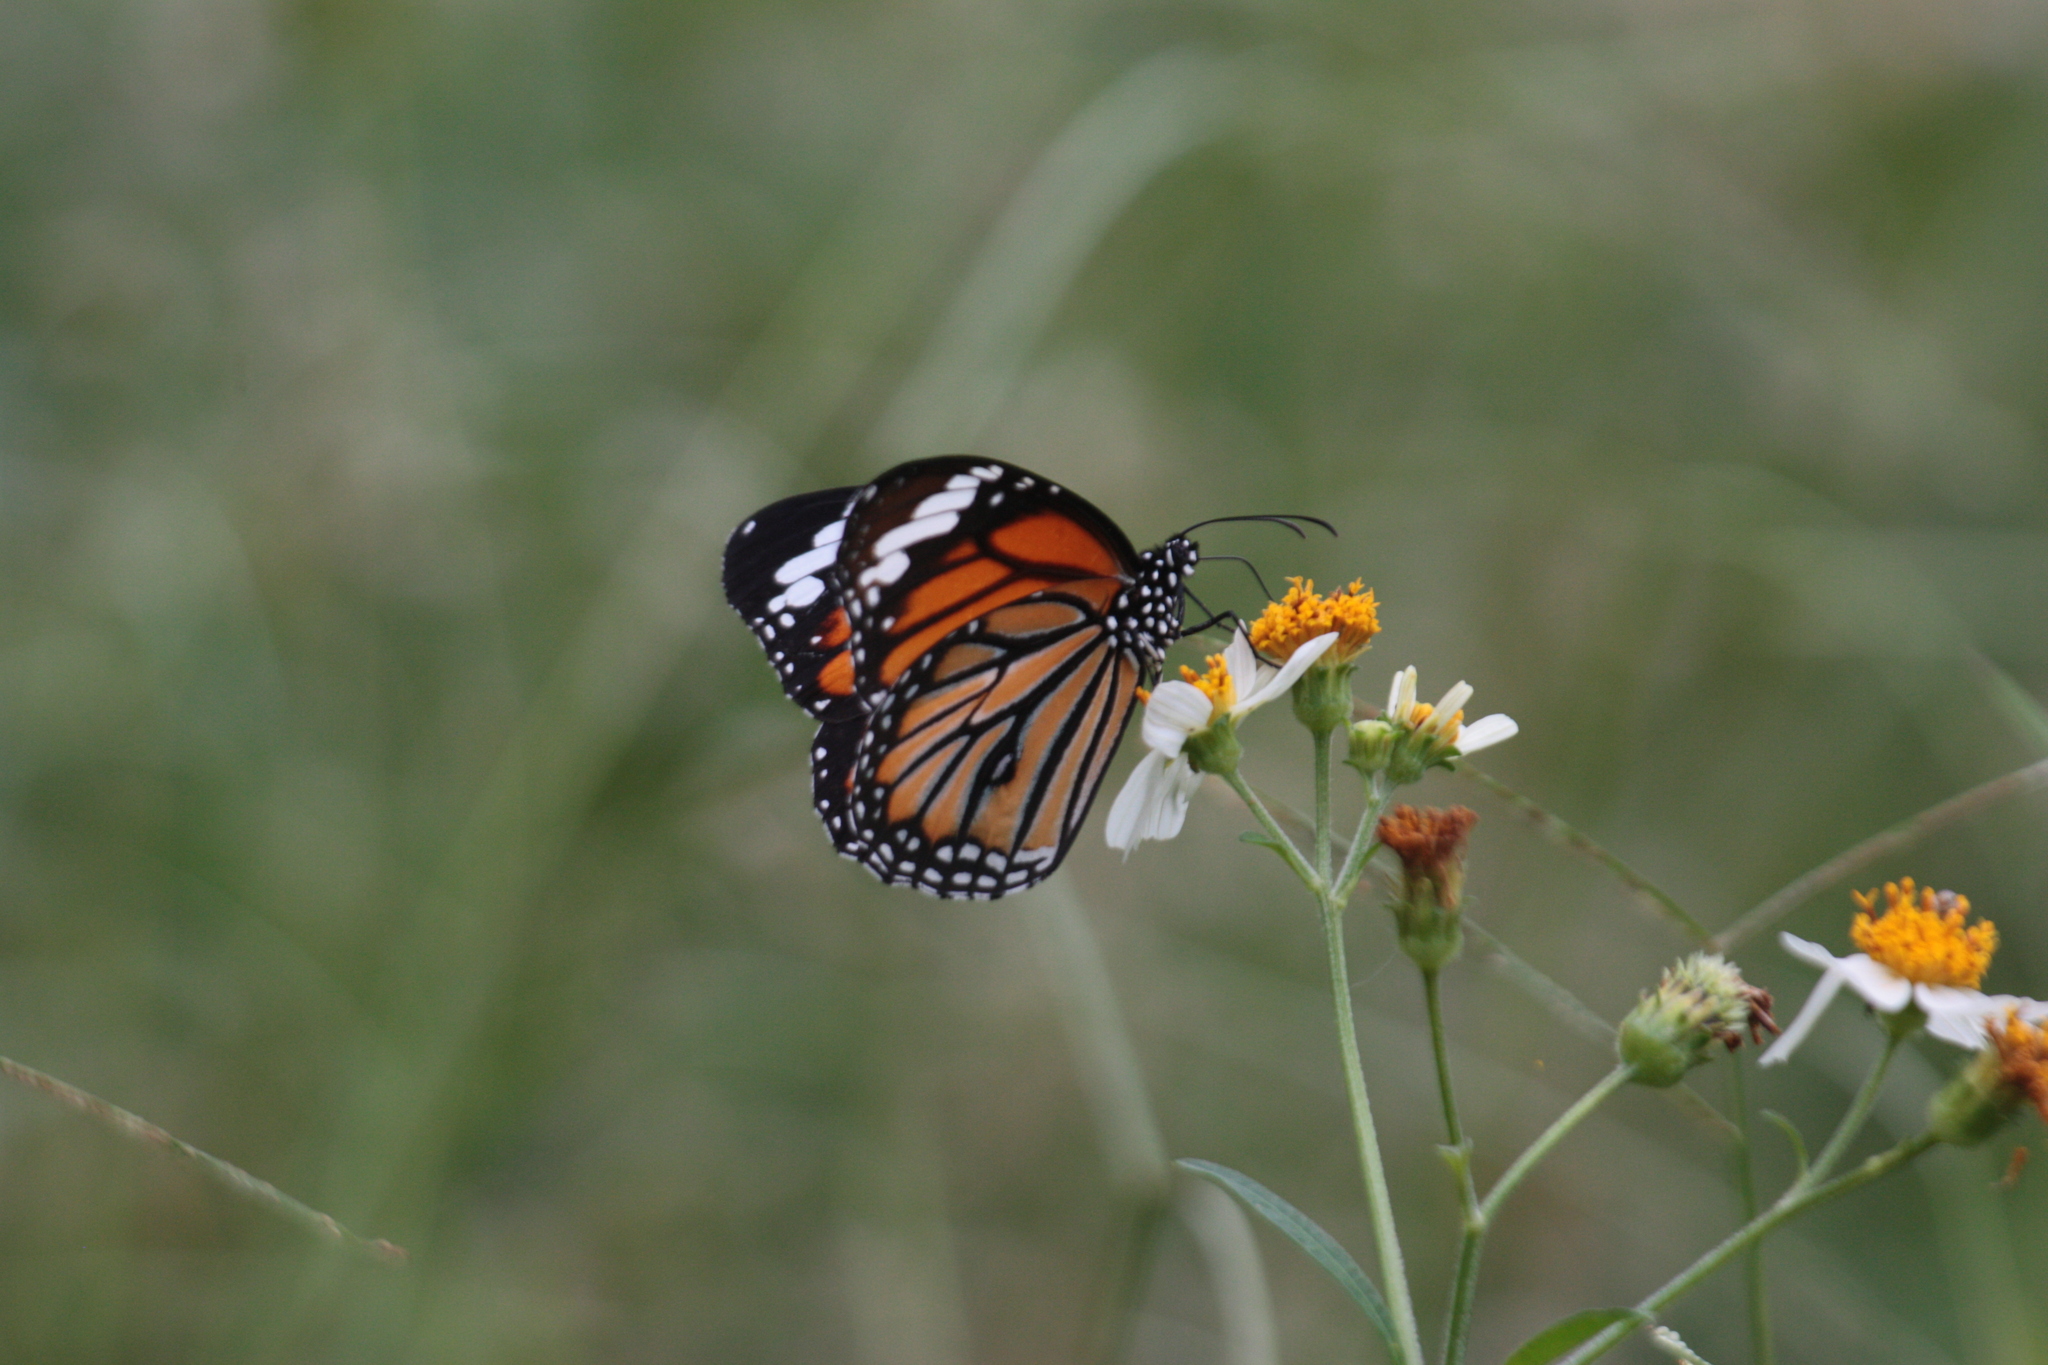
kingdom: Animalia
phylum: Arthropoda
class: Insecta
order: Lepidoptera
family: Nymphalidae
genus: Danaus
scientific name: Danaus genutia
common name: Common tiger butterfly
